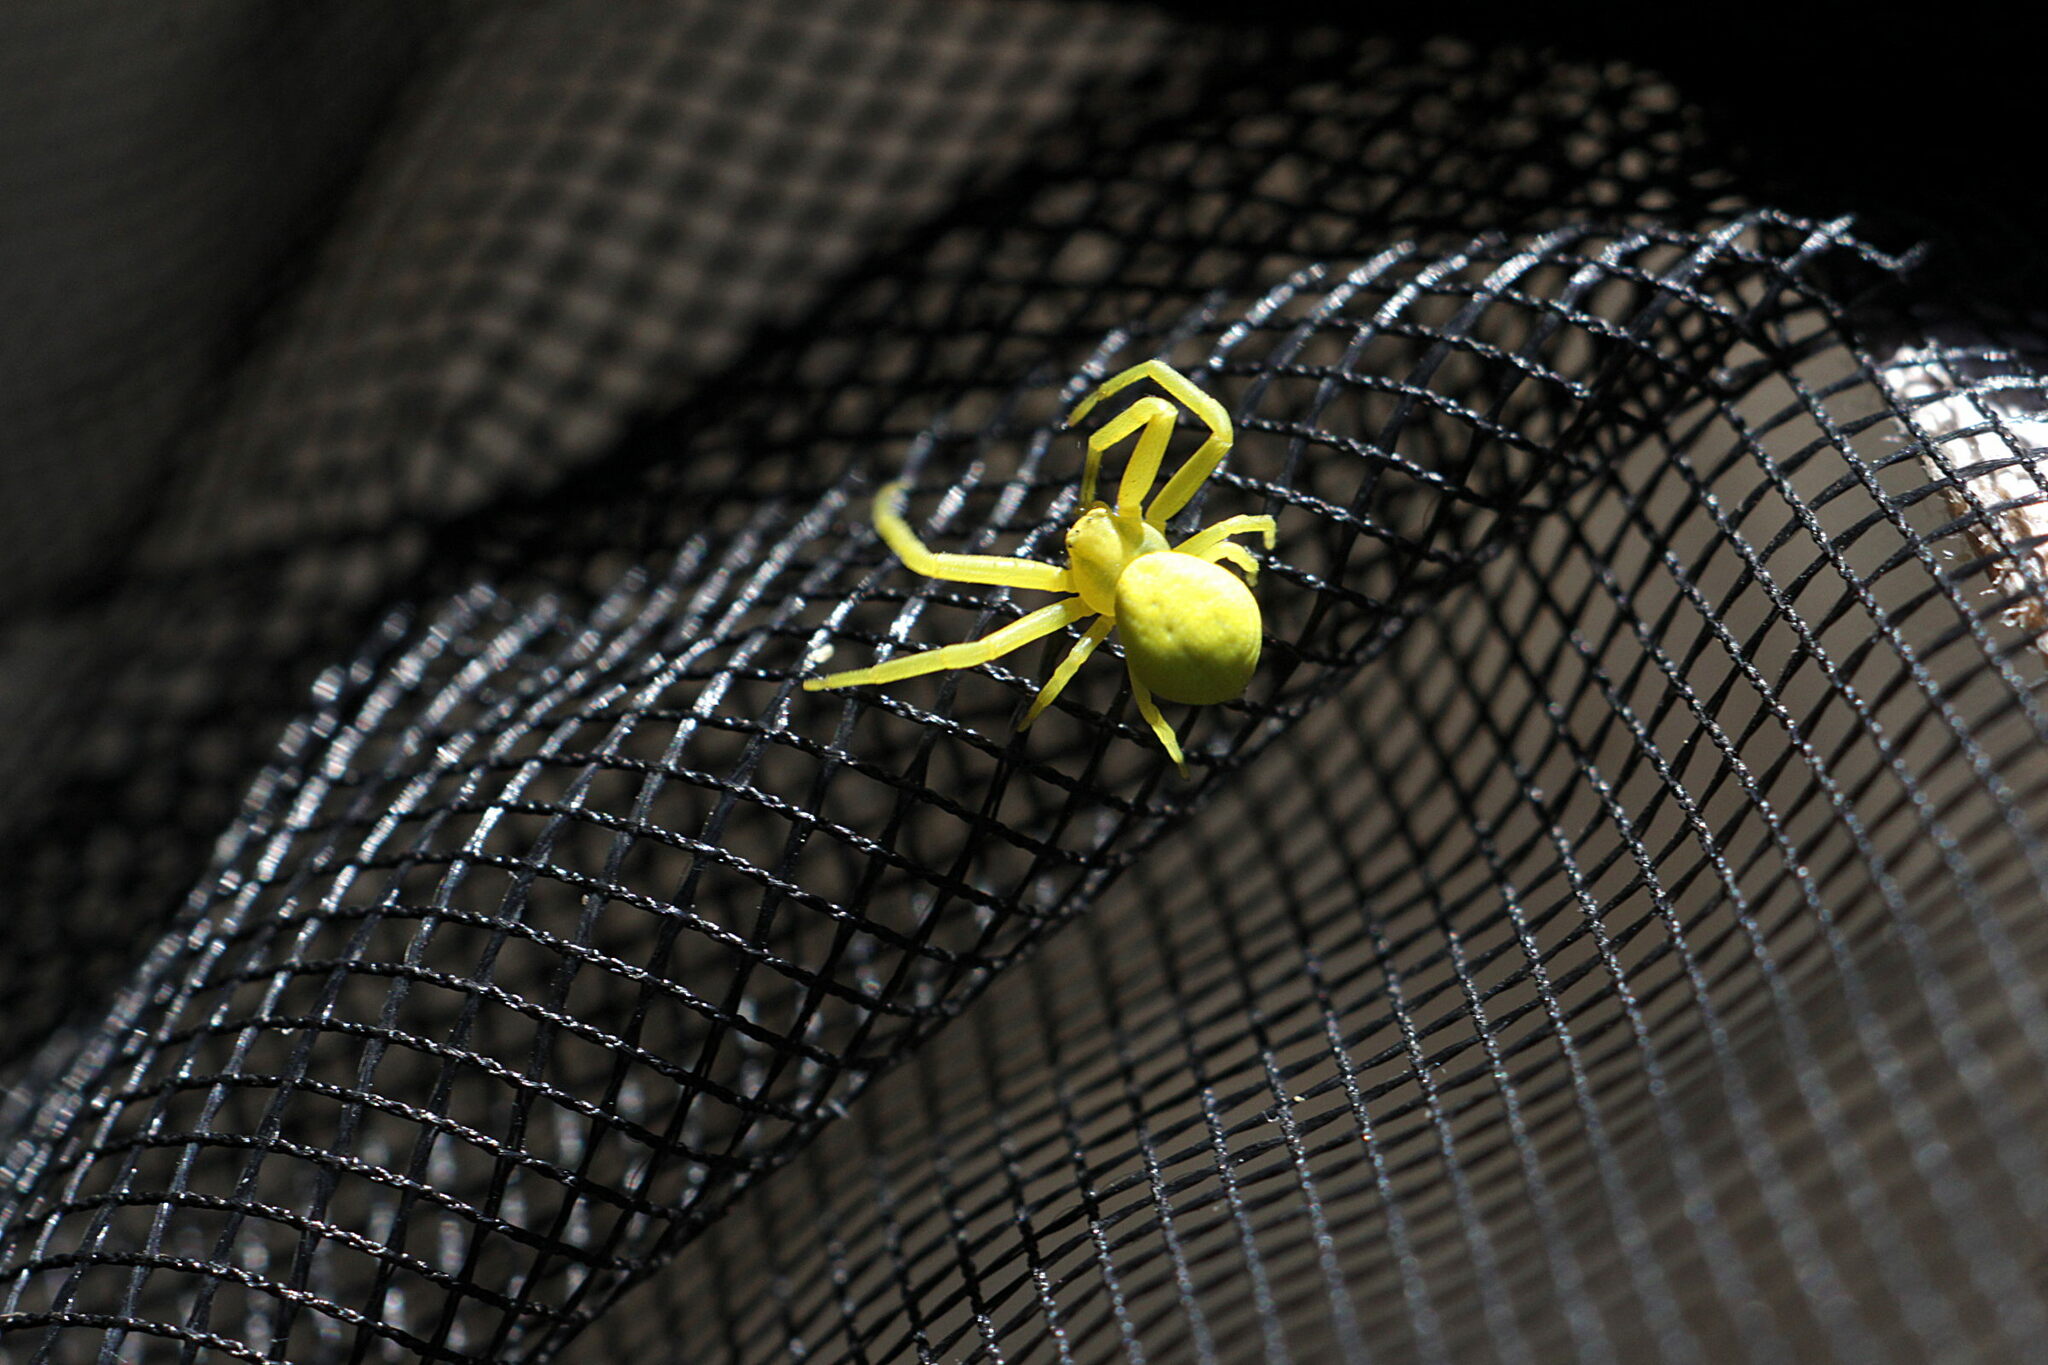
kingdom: Animalia
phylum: Arthropoda
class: Arachnida
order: Araneae
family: Thomisidae
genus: Misumena
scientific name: Misumena vatia
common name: Goldenrod crab spider
